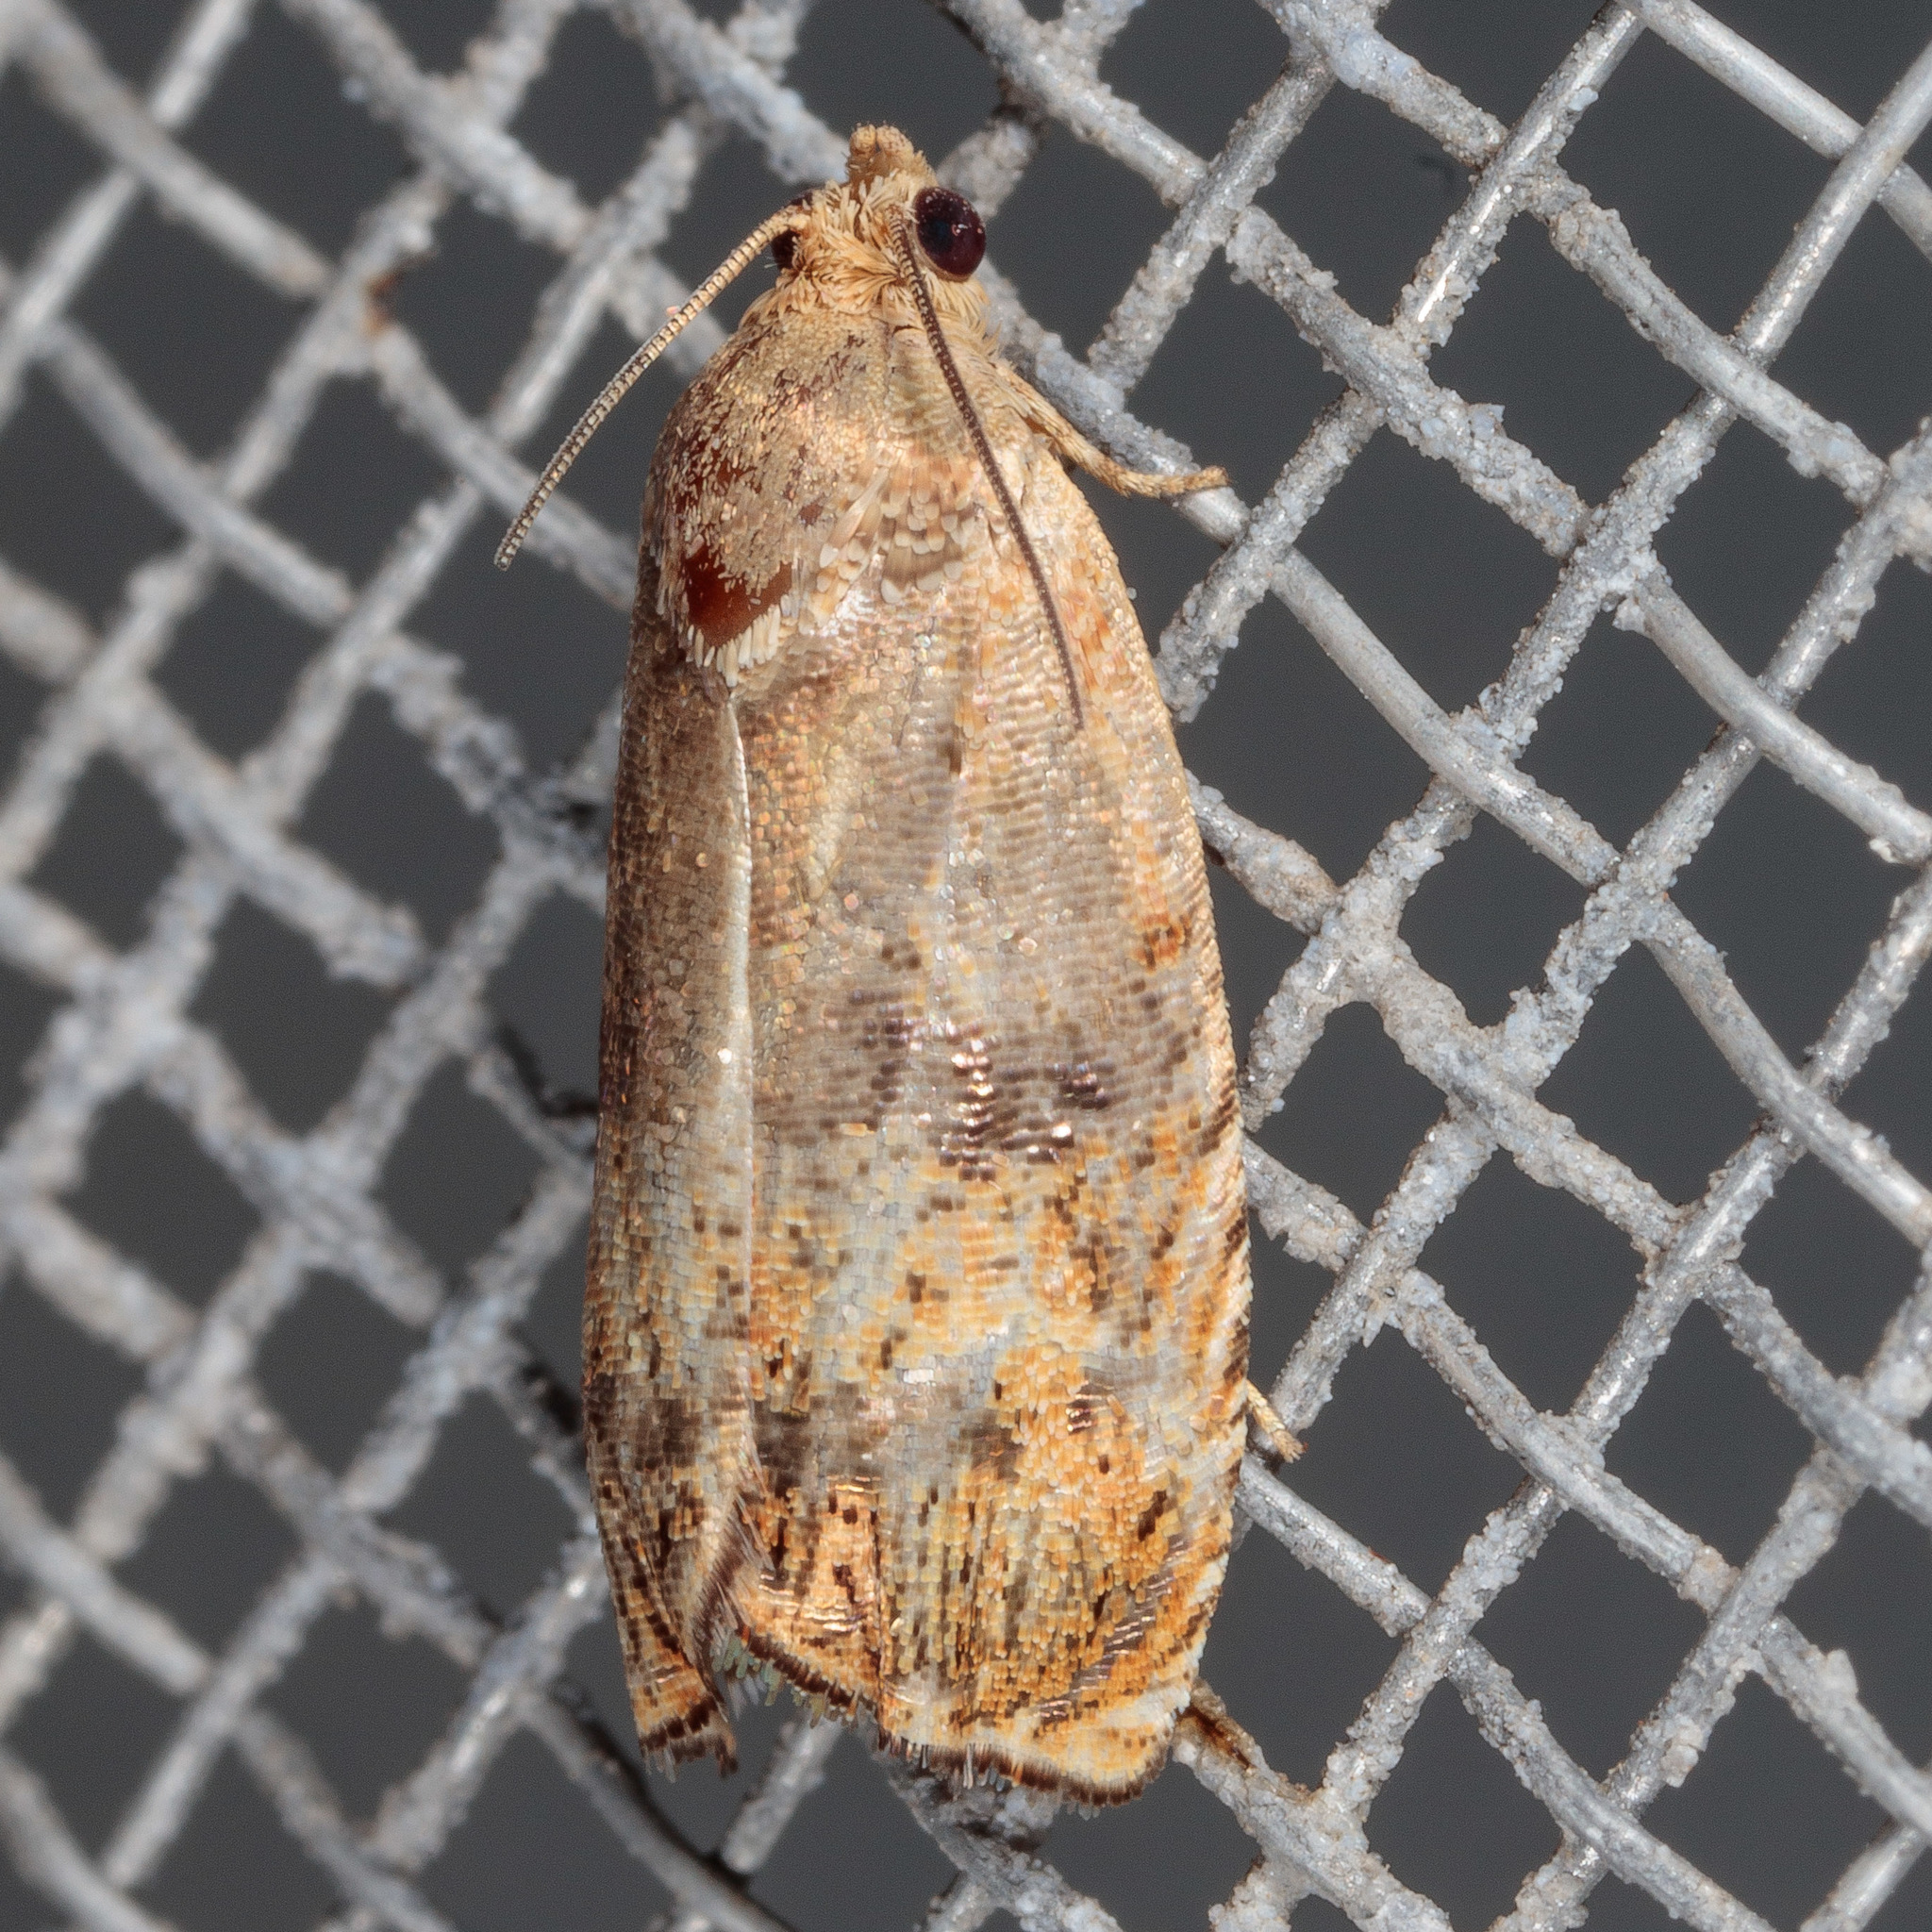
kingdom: Animalia
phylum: Arthropoda
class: Insecta
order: Lepidoptera
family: Tortricidae
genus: Cydia
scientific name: Cydia latiferreana
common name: Filbertworm moth
